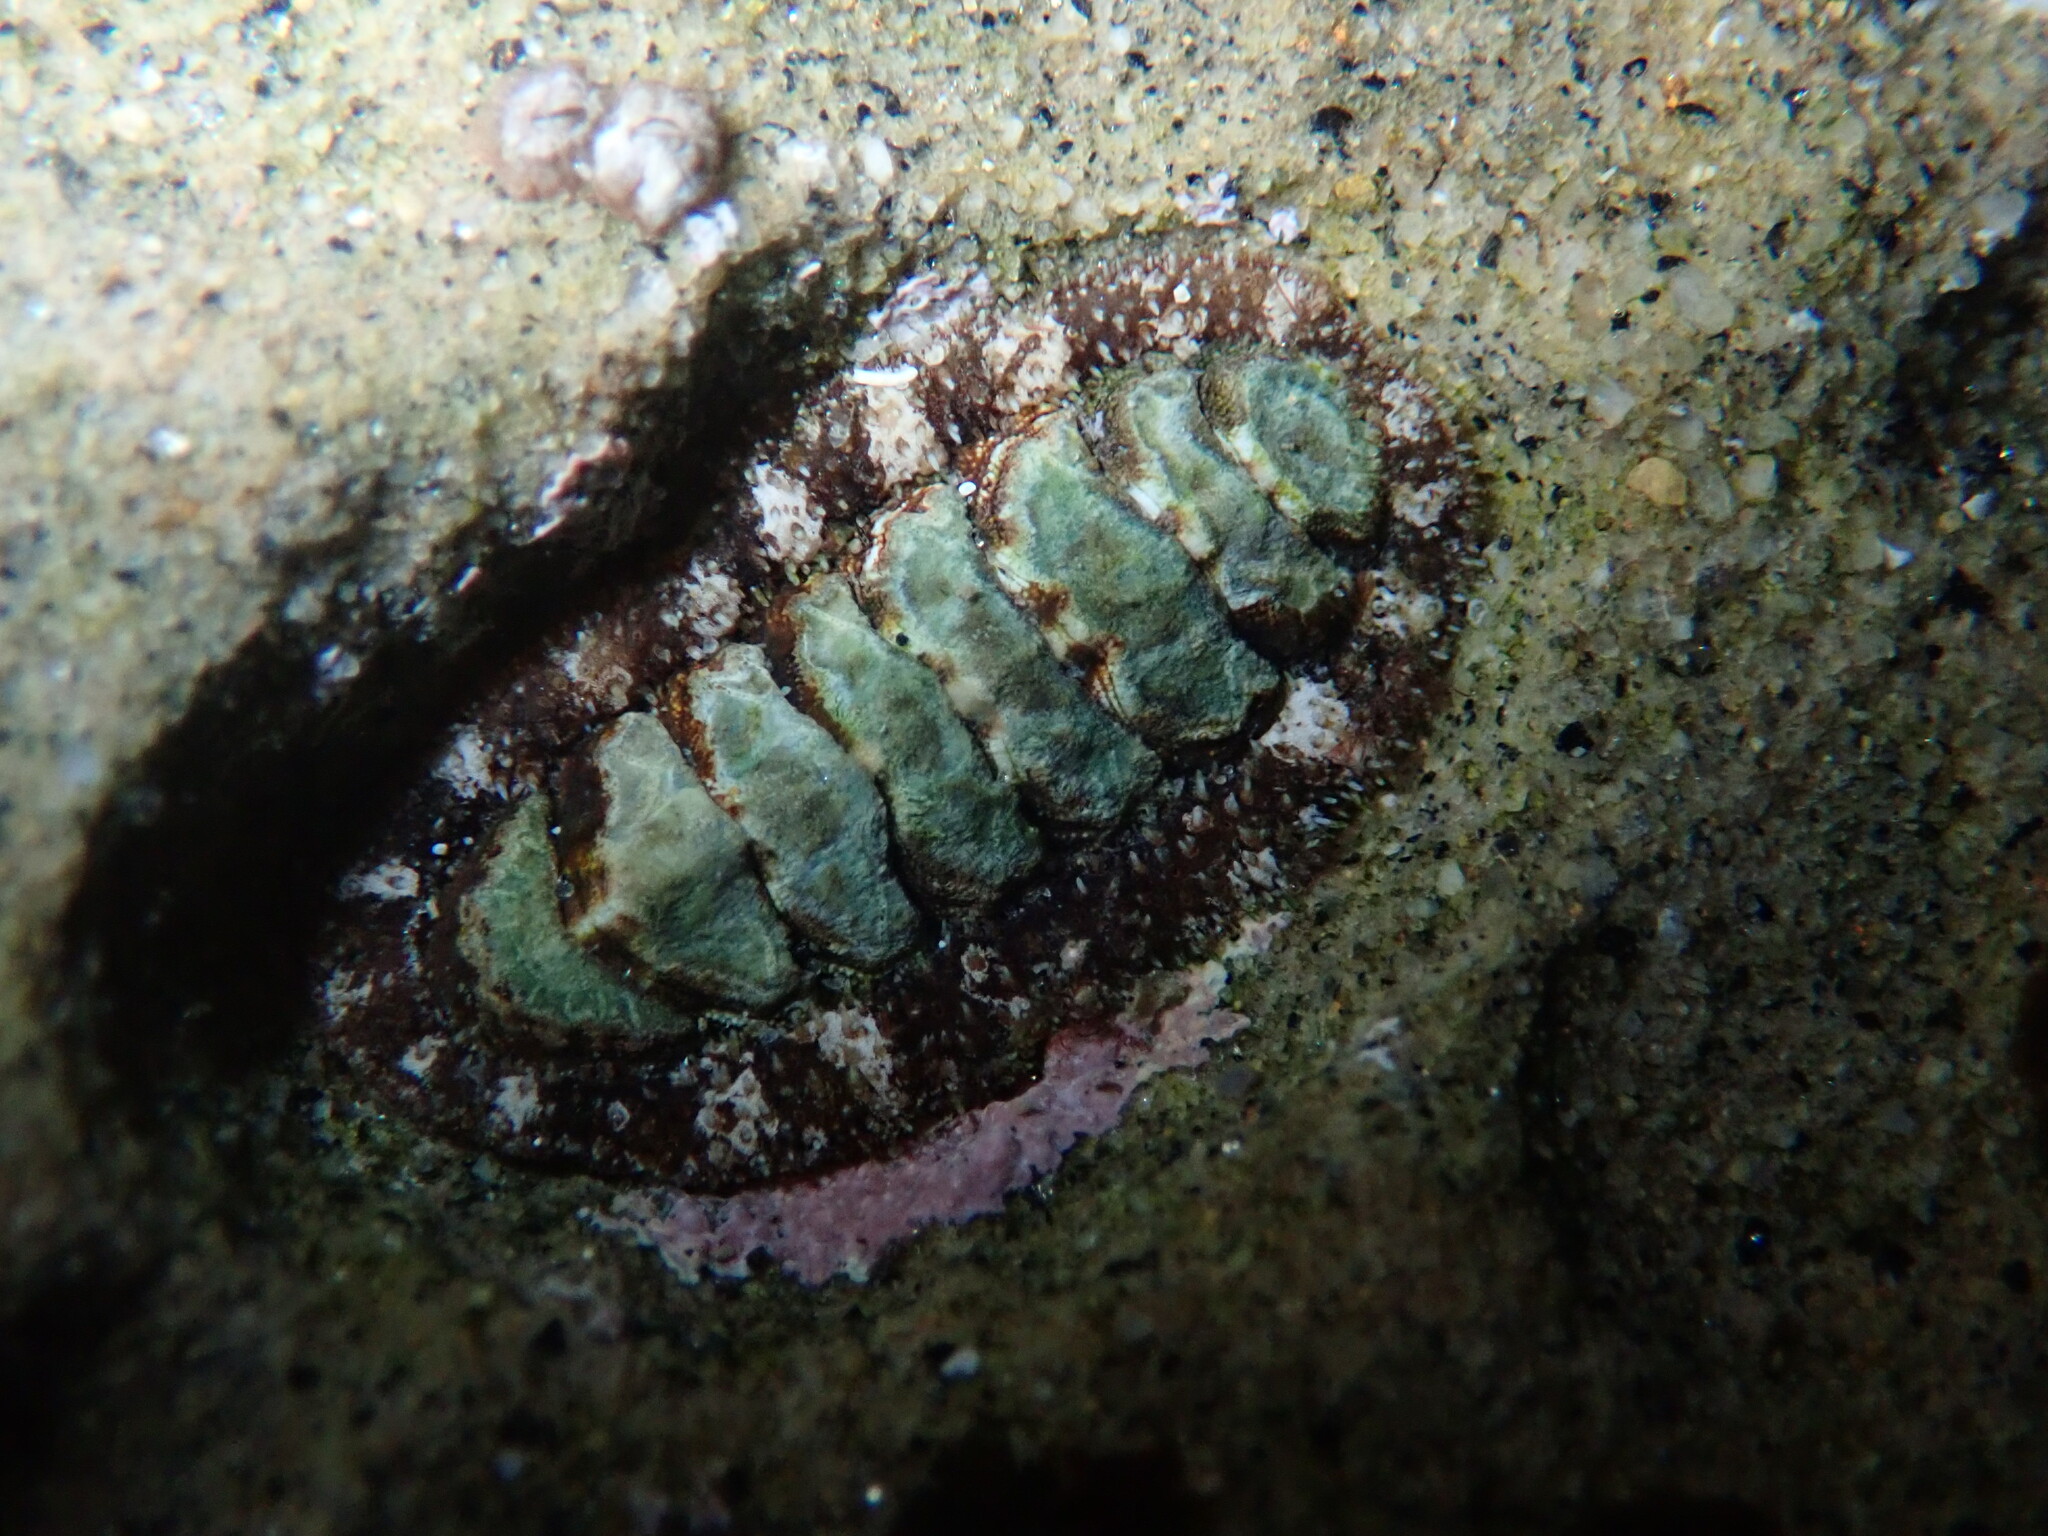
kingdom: Animalia
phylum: Mollusca
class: Polyplacophora
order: Chitonida
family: Tonicellidae
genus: Nuttallina
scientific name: Nuttallina californica
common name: California nuttall chiton
